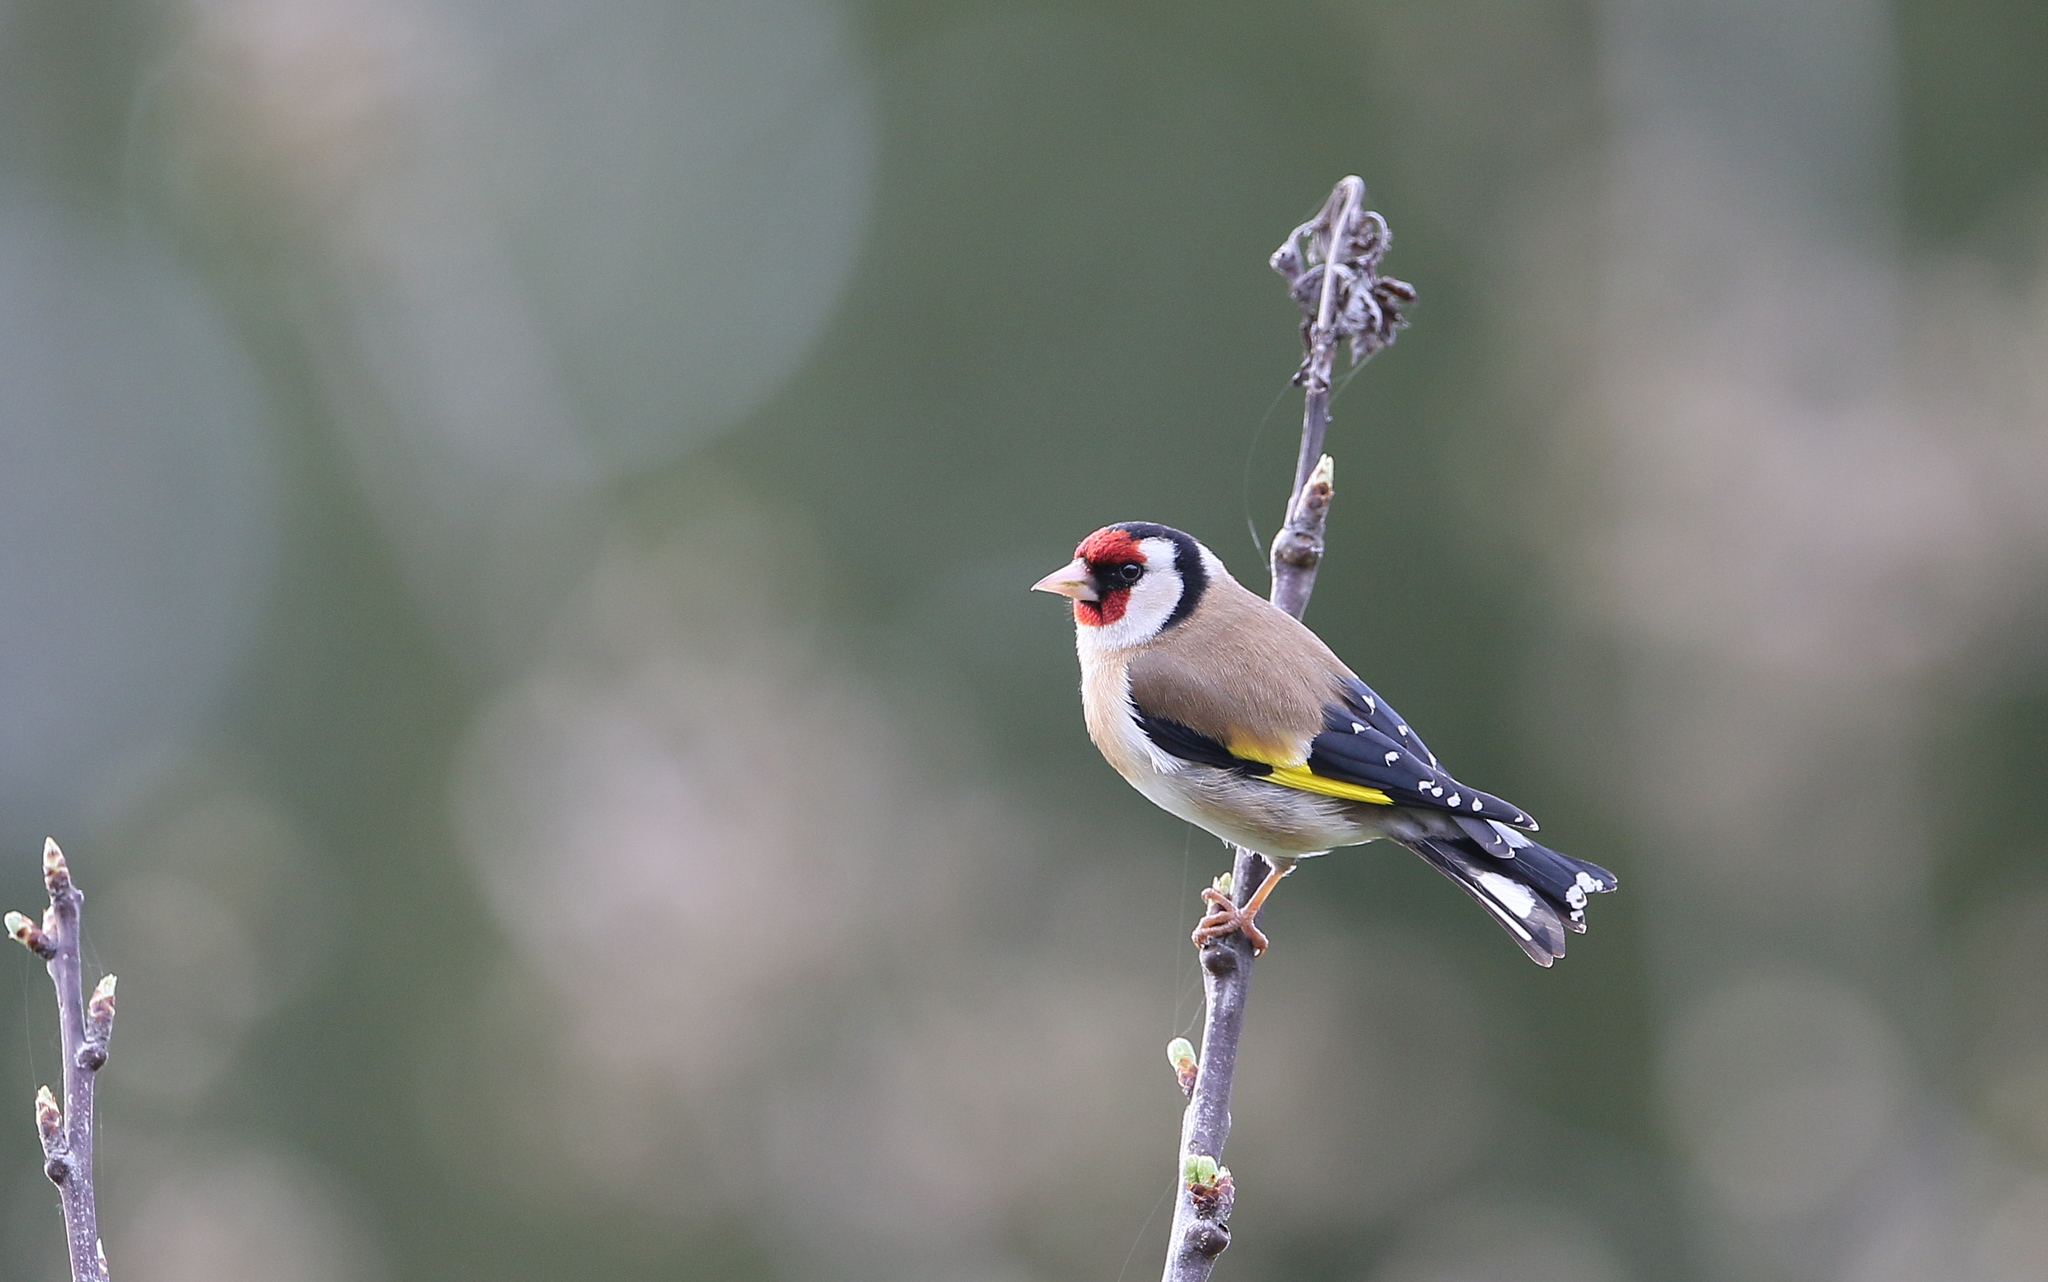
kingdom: Animalia
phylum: Chordata
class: Aves
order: Passeriformes
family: Fringillidae
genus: Carduelis
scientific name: Carduelis carduelis
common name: European goldfinch
